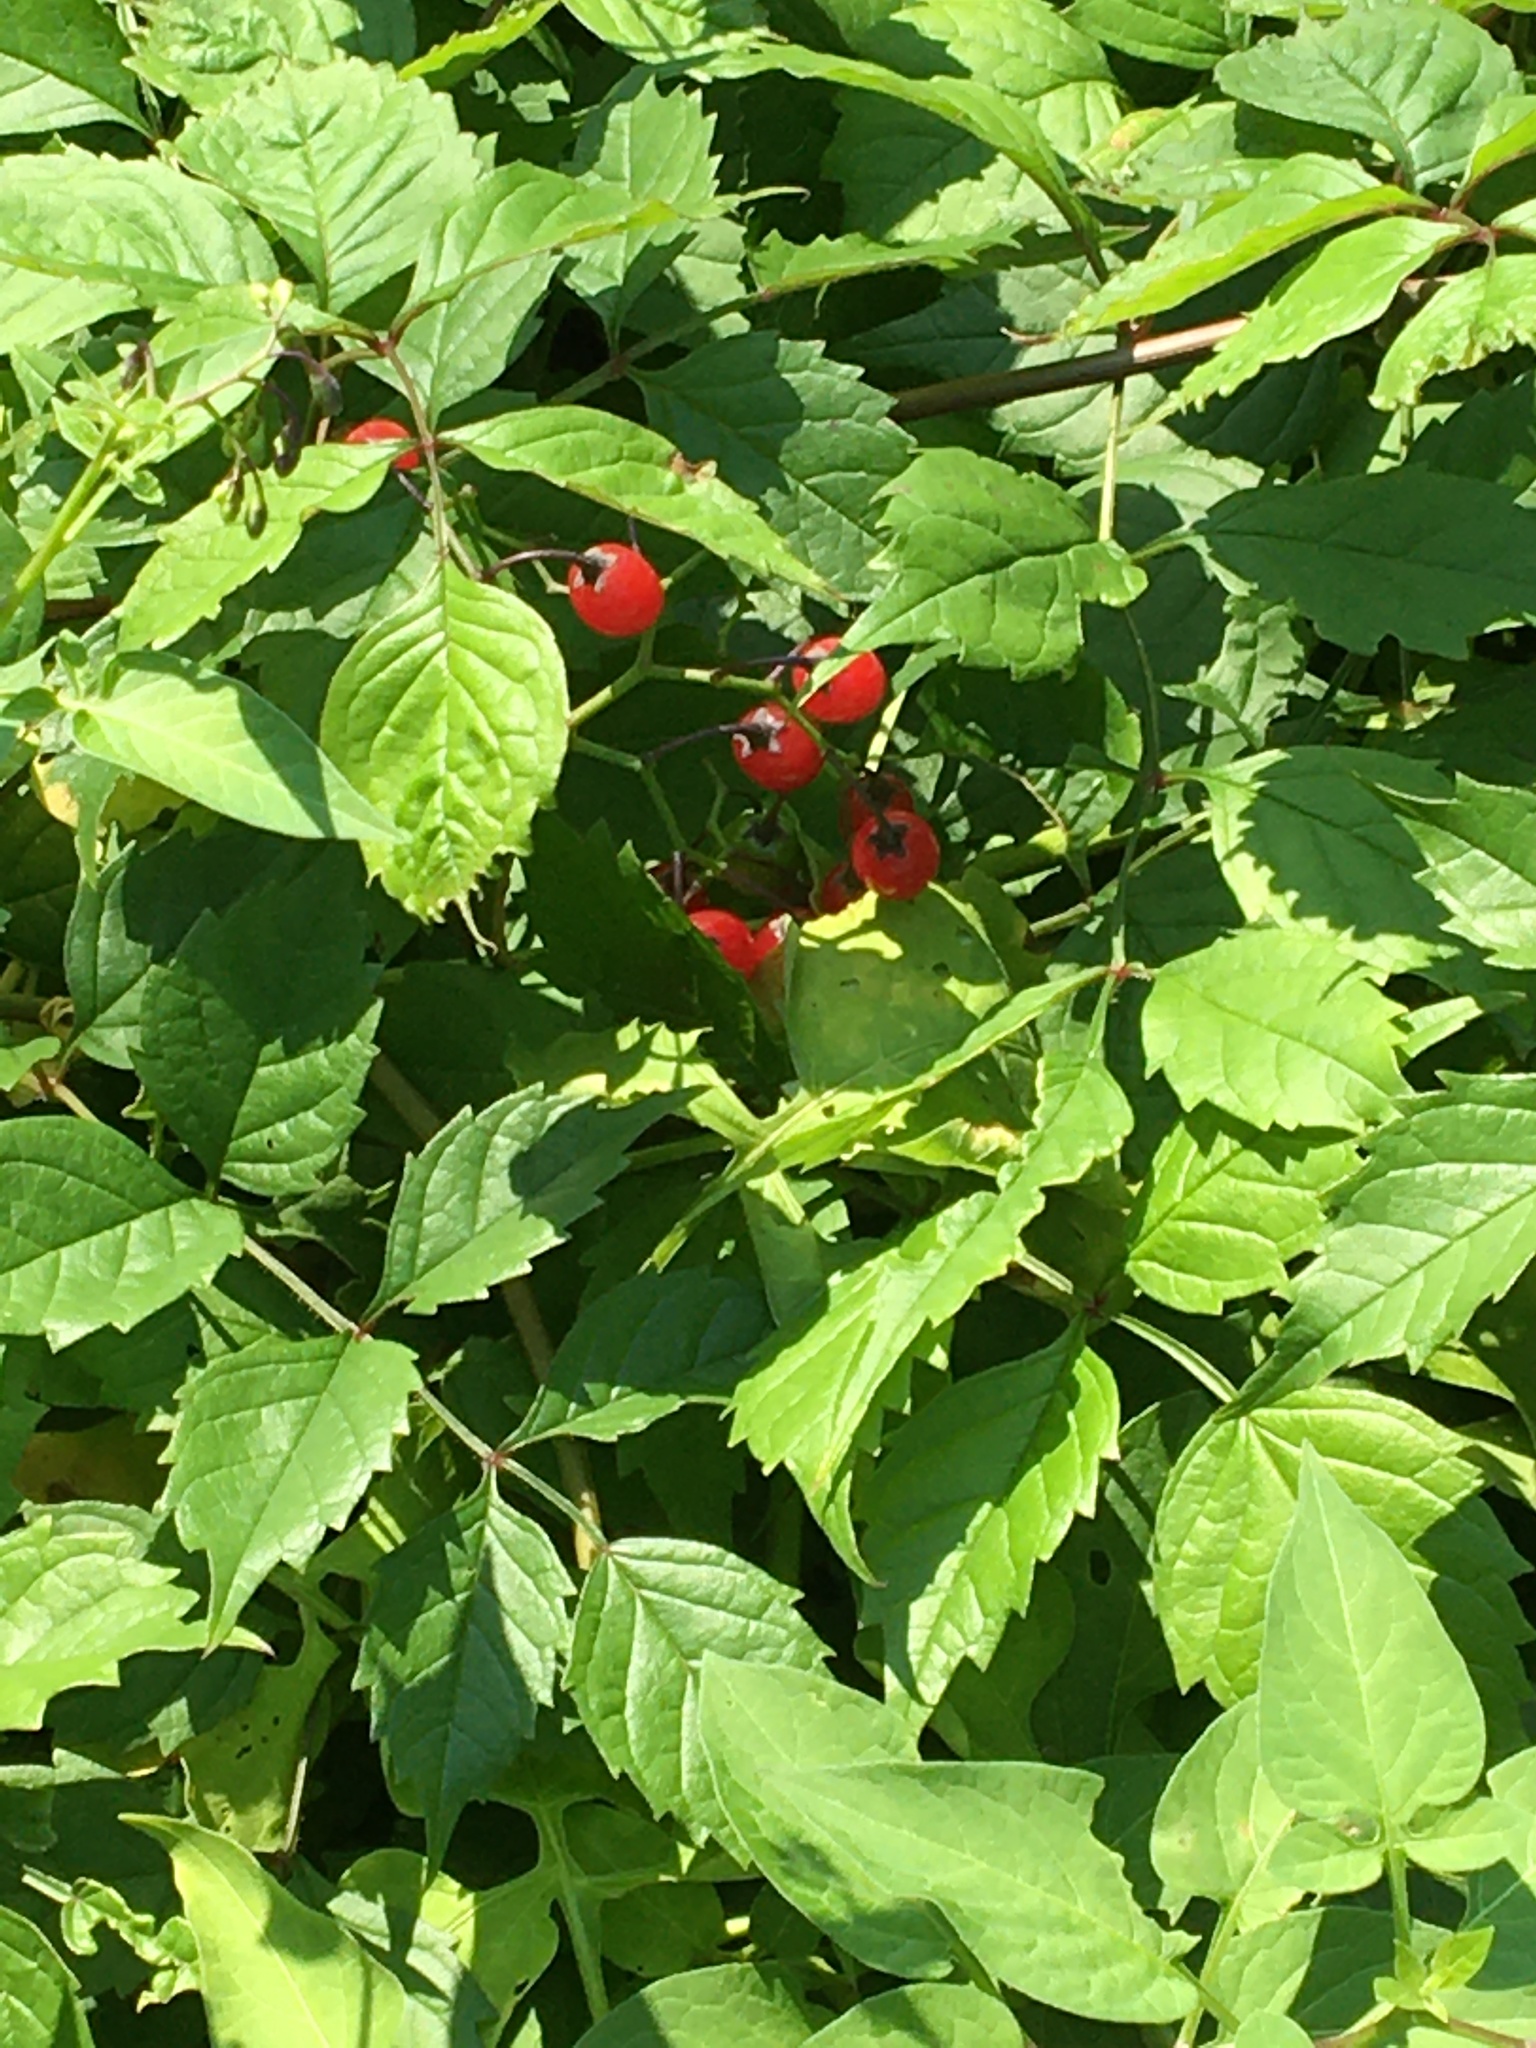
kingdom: Plantae
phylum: Tracheophyta
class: Magnoliopsida
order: Solanales
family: Solanaceae
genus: Solanum
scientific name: Solanum dulcamara
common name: Climbing nightshade
